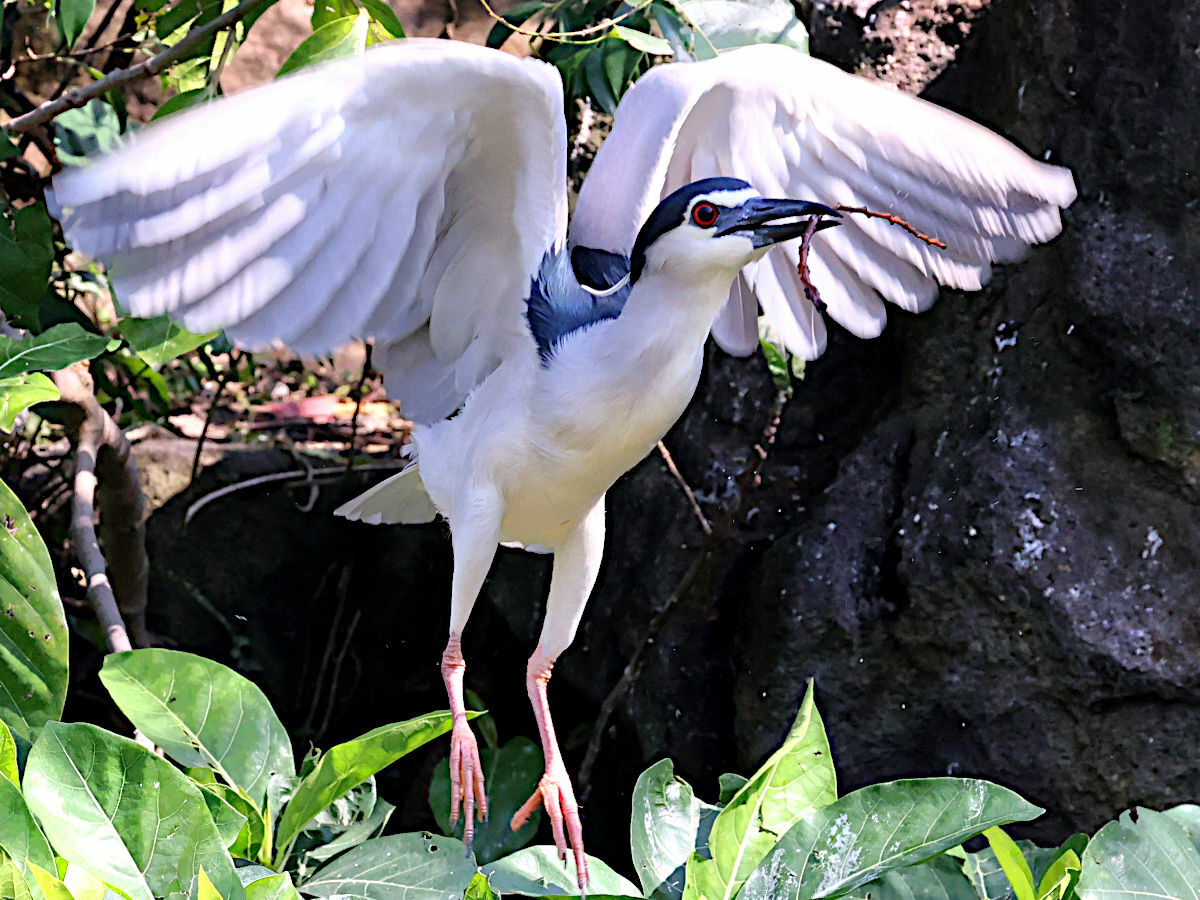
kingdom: Animalia
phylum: Chordata
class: Aves
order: Pelecaniformes
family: Ardeidae
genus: Nycticorax
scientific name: Nycticorax nycticorax
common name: Black-crowned night heron
